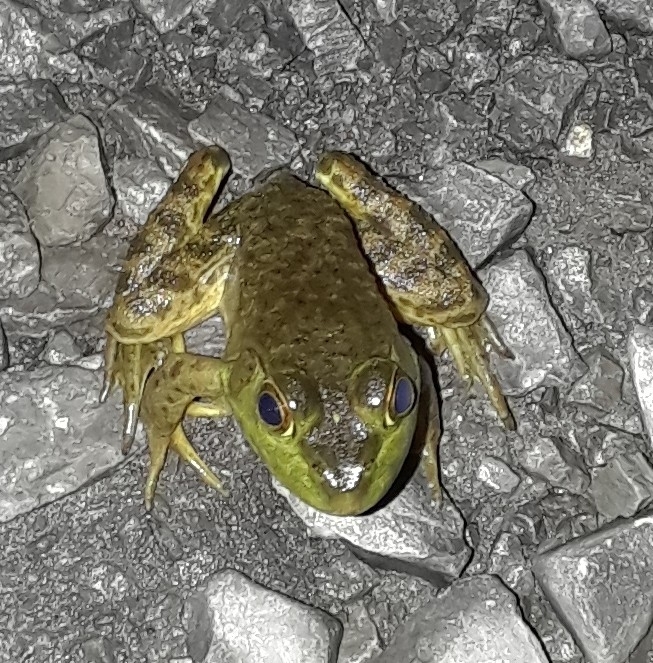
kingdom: Animalia
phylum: Chordata
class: Amphibia
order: Anura
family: Ranidae
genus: Lithobates
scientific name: Lithobates catesbeianus
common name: American bullfrog
